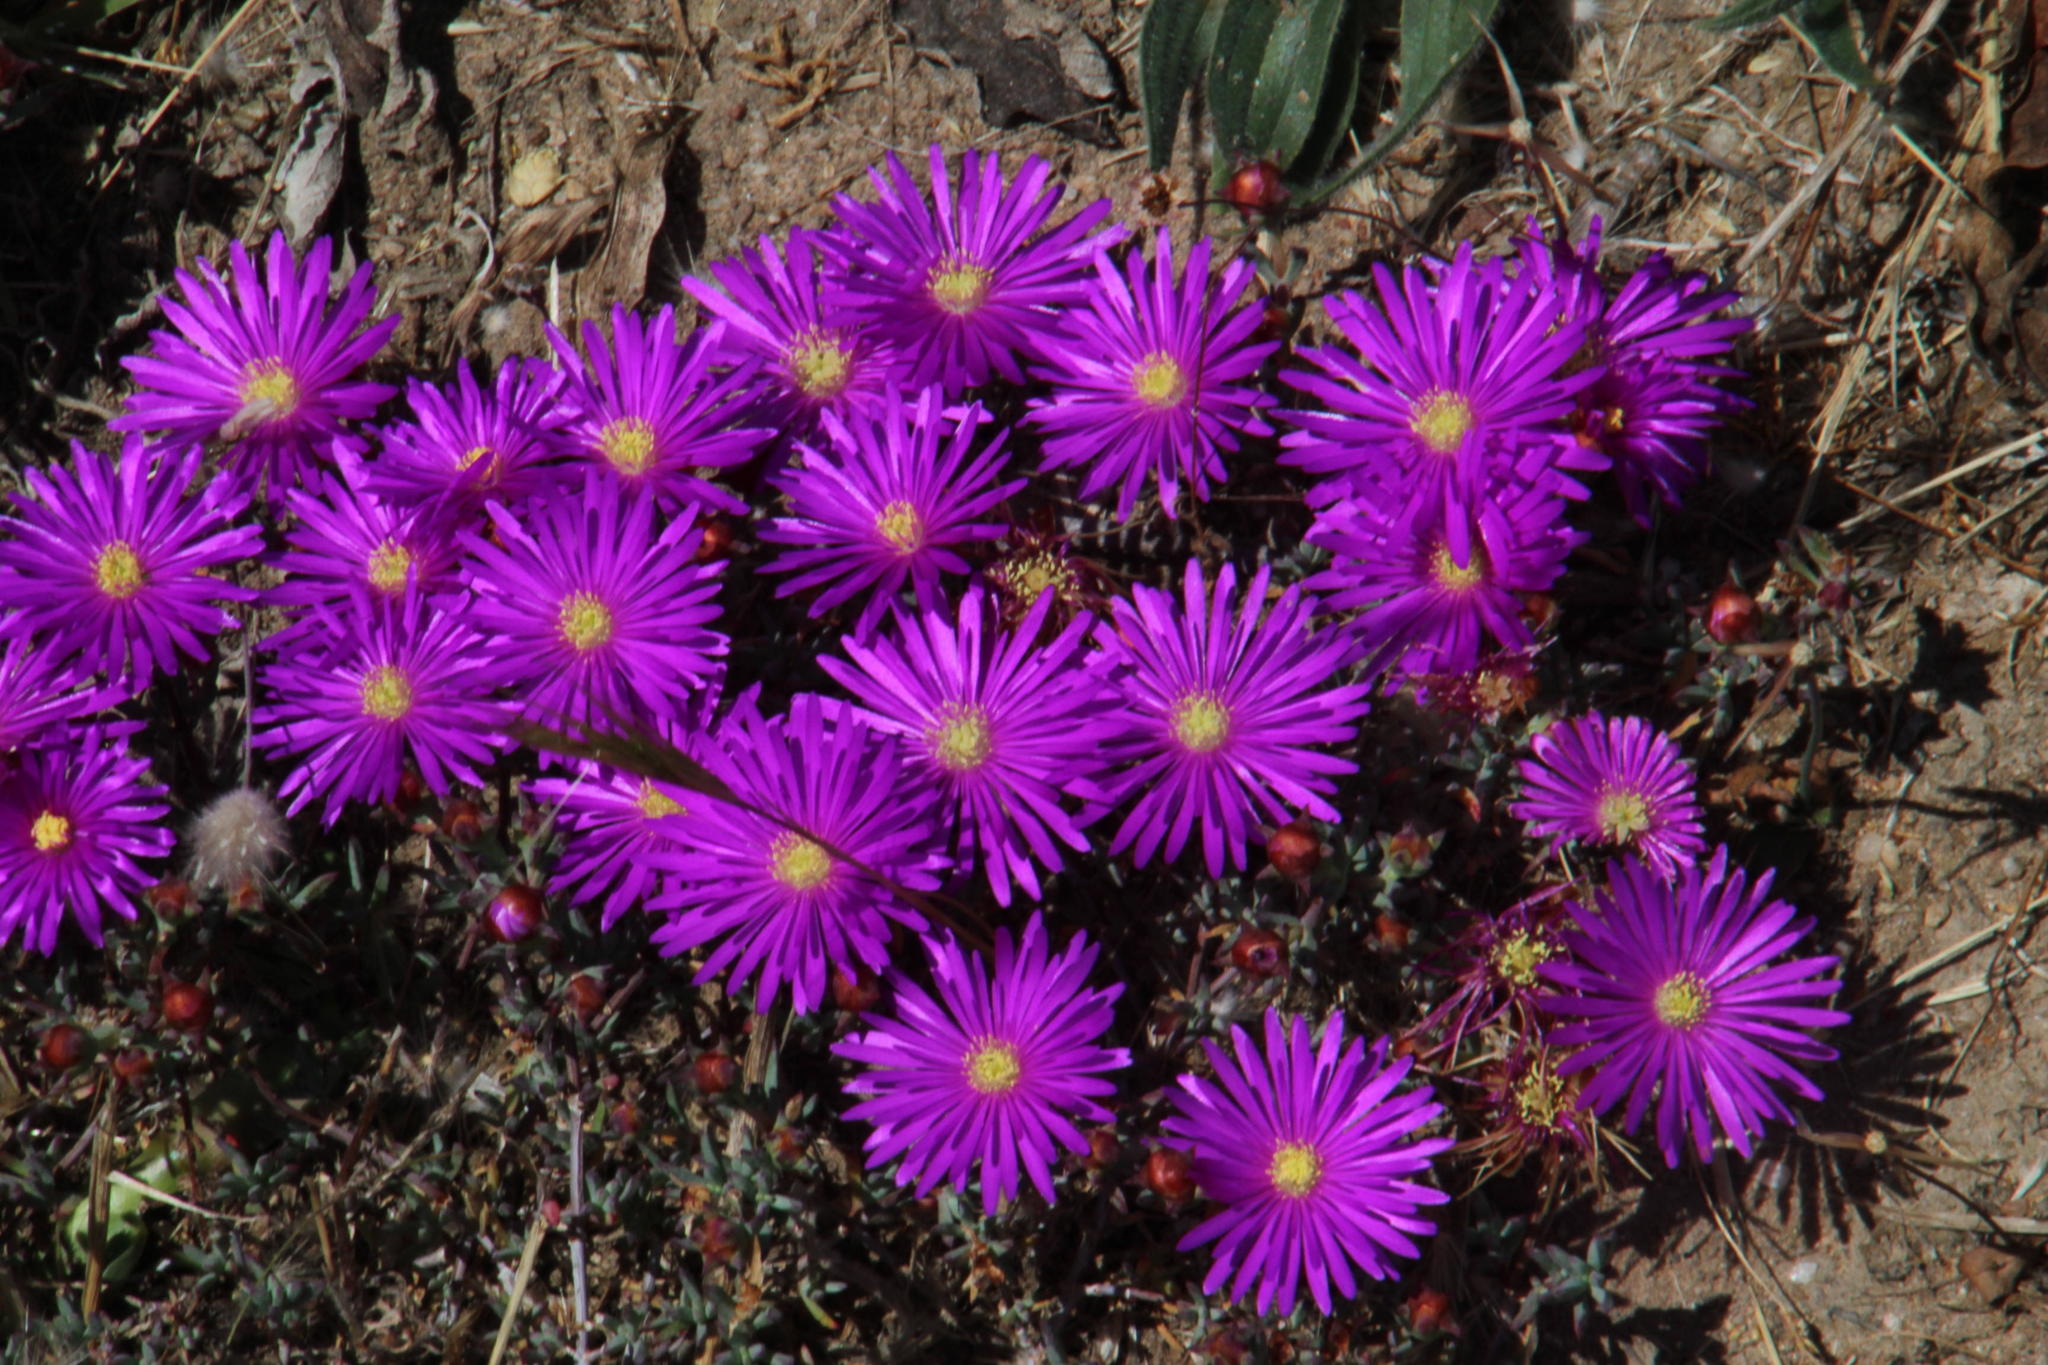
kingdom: Plantae
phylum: Tracheophyta
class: Magnoliopsida
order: Caryophyllales
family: Aizoaceae
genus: Lampranthus
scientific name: Lampranthus emarginatus
